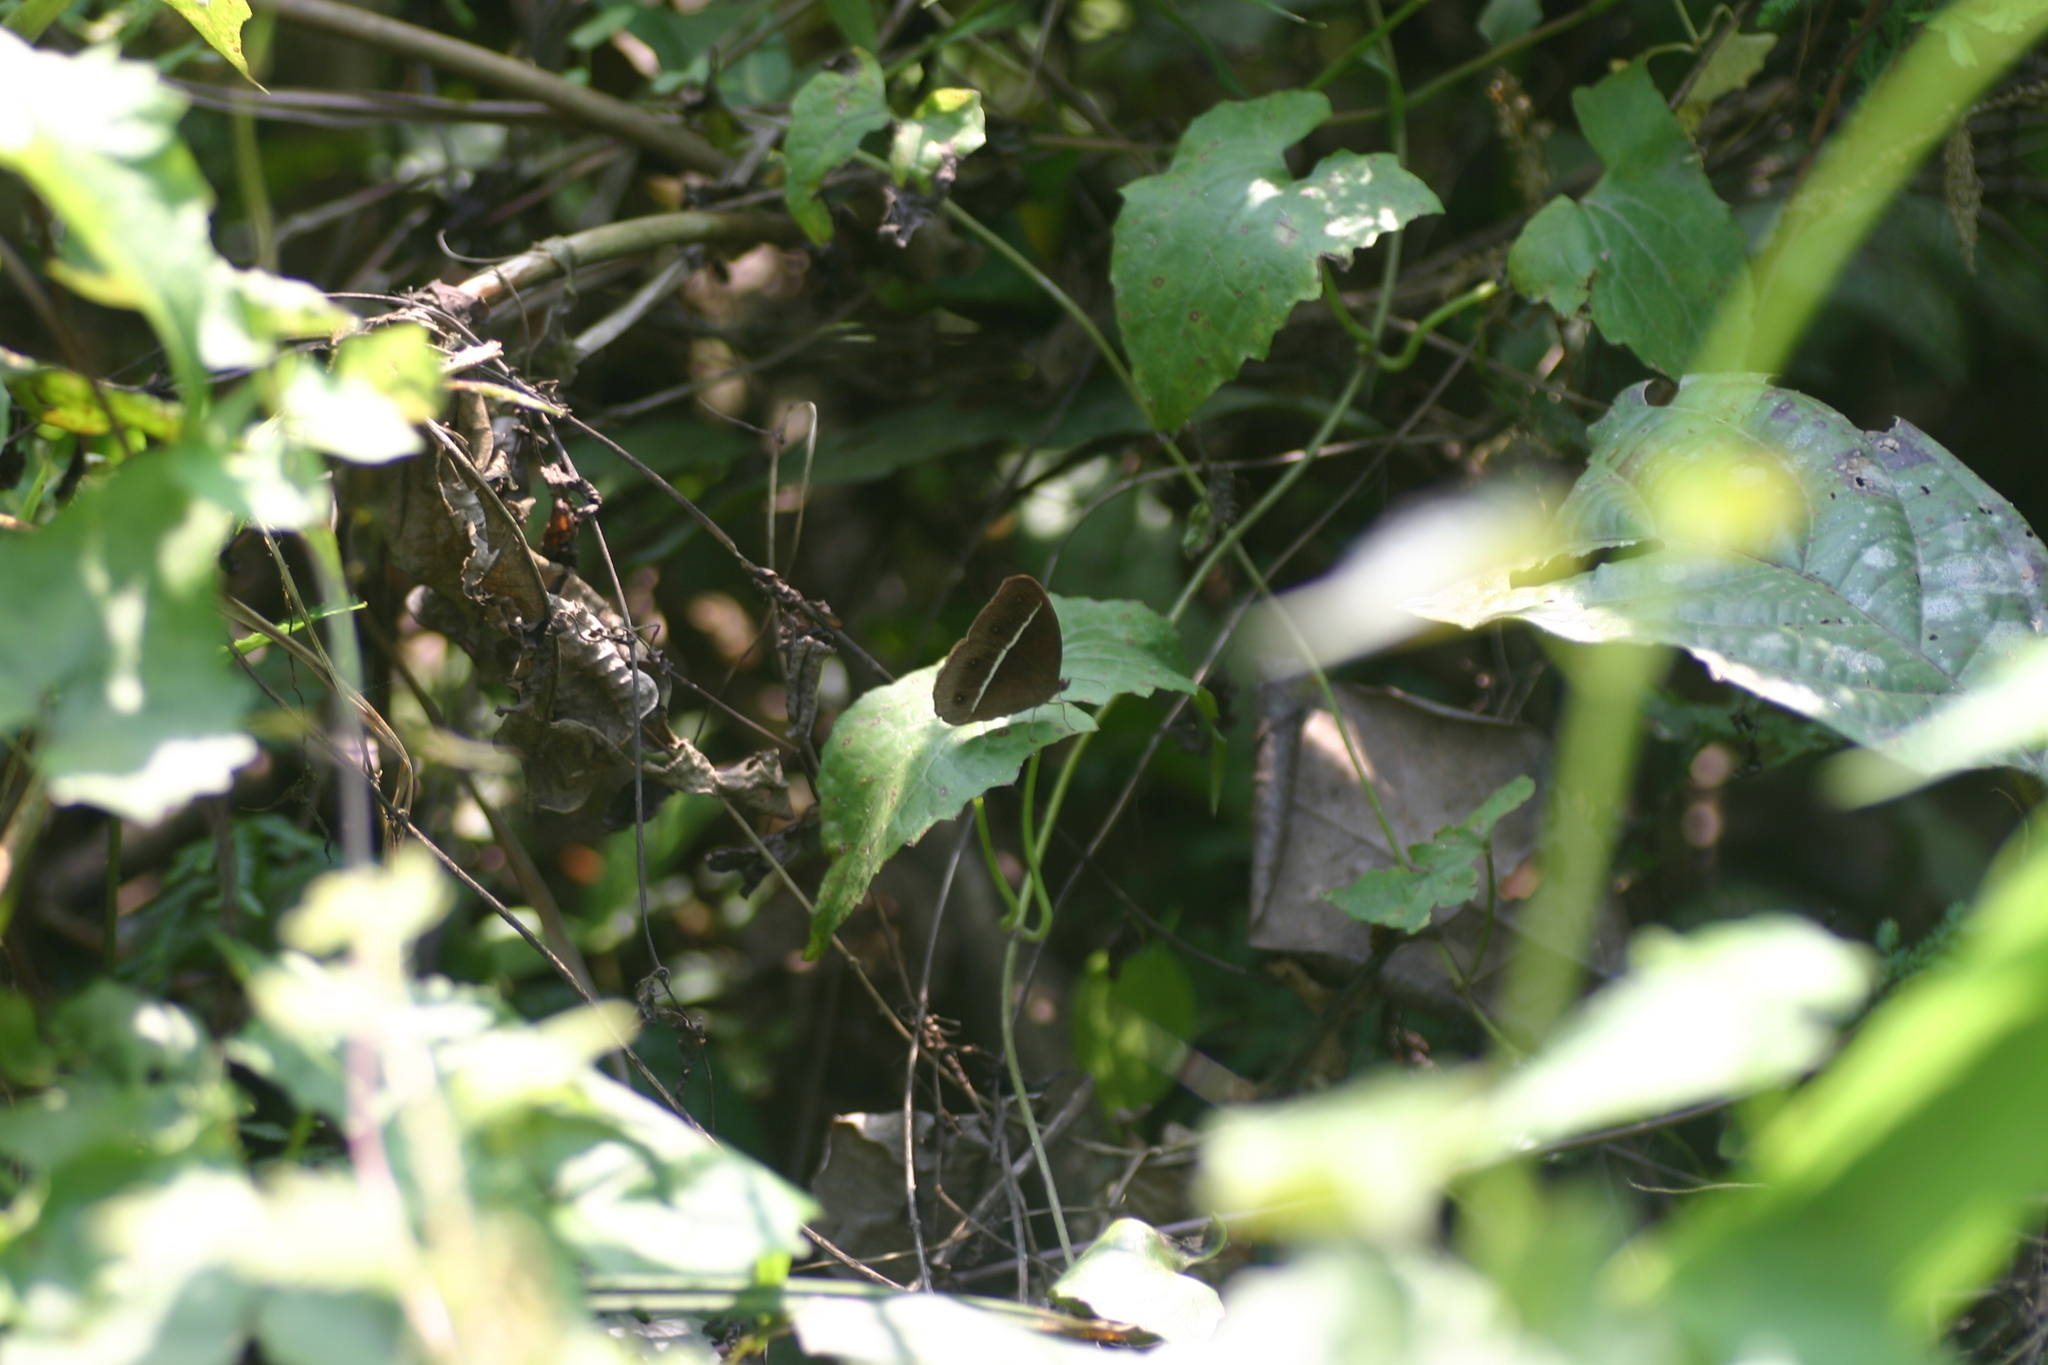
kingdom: Animalia
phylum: Arthropoda
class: Insecta
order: Lepidoptera
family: Nymphalidae
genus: Orsotriaena
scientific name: Orsotriaena medus
